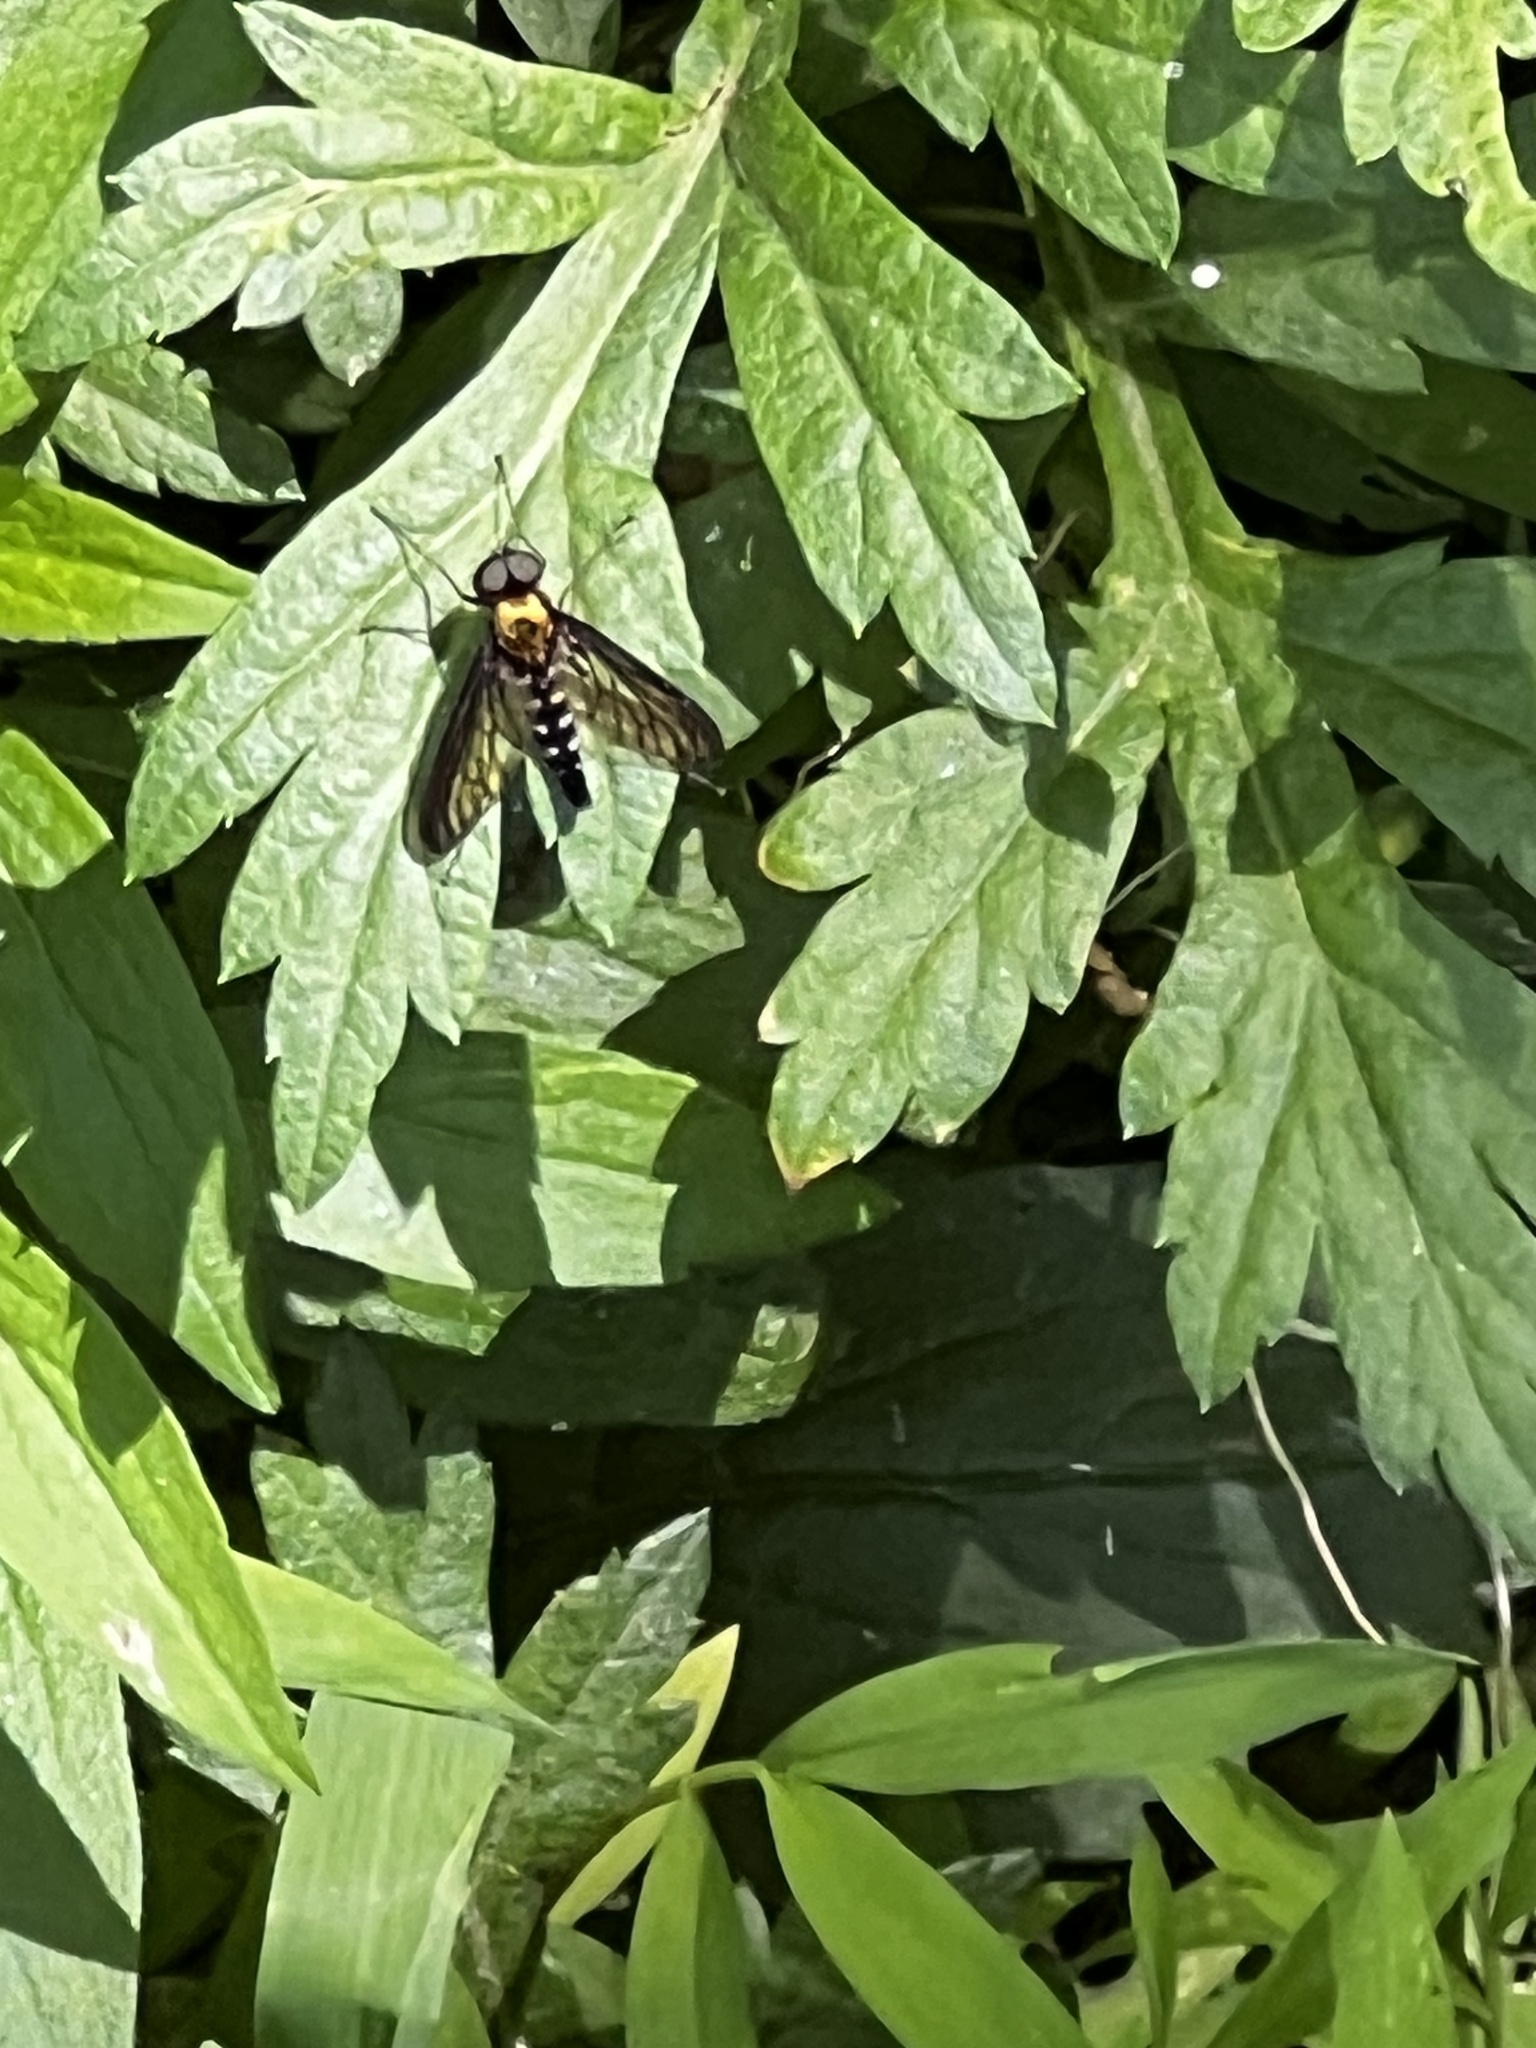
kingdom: Animalia
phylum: Arthropoda
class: Insecta
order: Diptera
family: Rhagionidae
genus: Chrysopilus
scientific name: Chrysopilus thoracicus
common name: Golden-backed snipe fly
